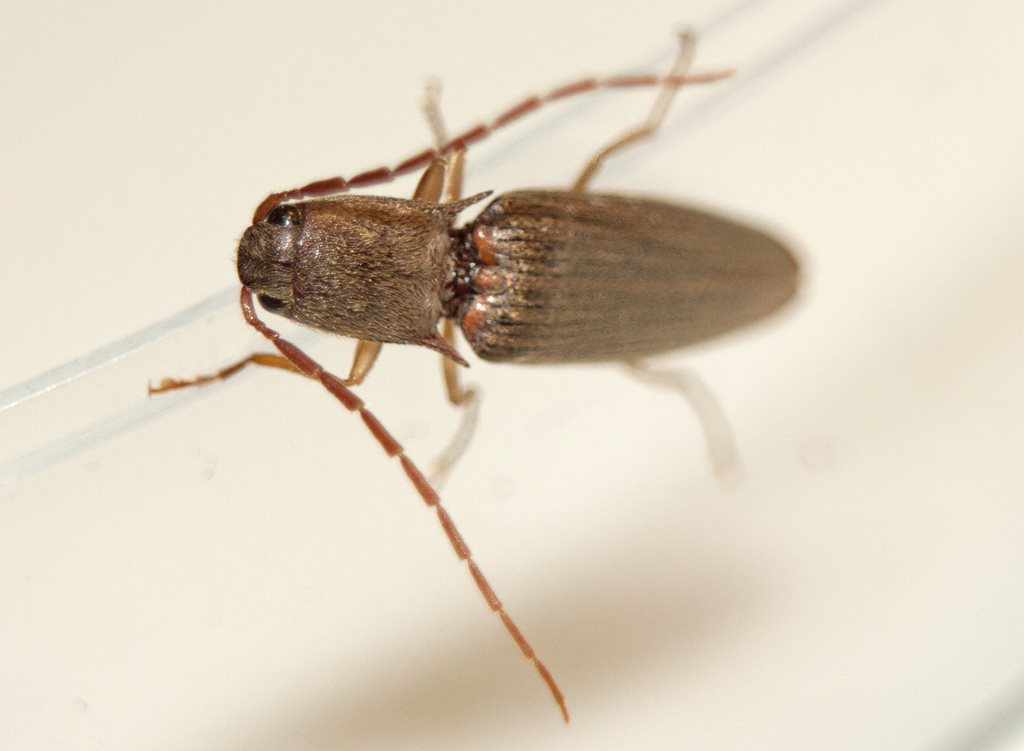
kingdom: Animalia
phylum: Arthropoda
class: Insecta
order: Coleoptera
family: Elateridae
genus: Monocrepidius
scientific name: Monocrepidius
